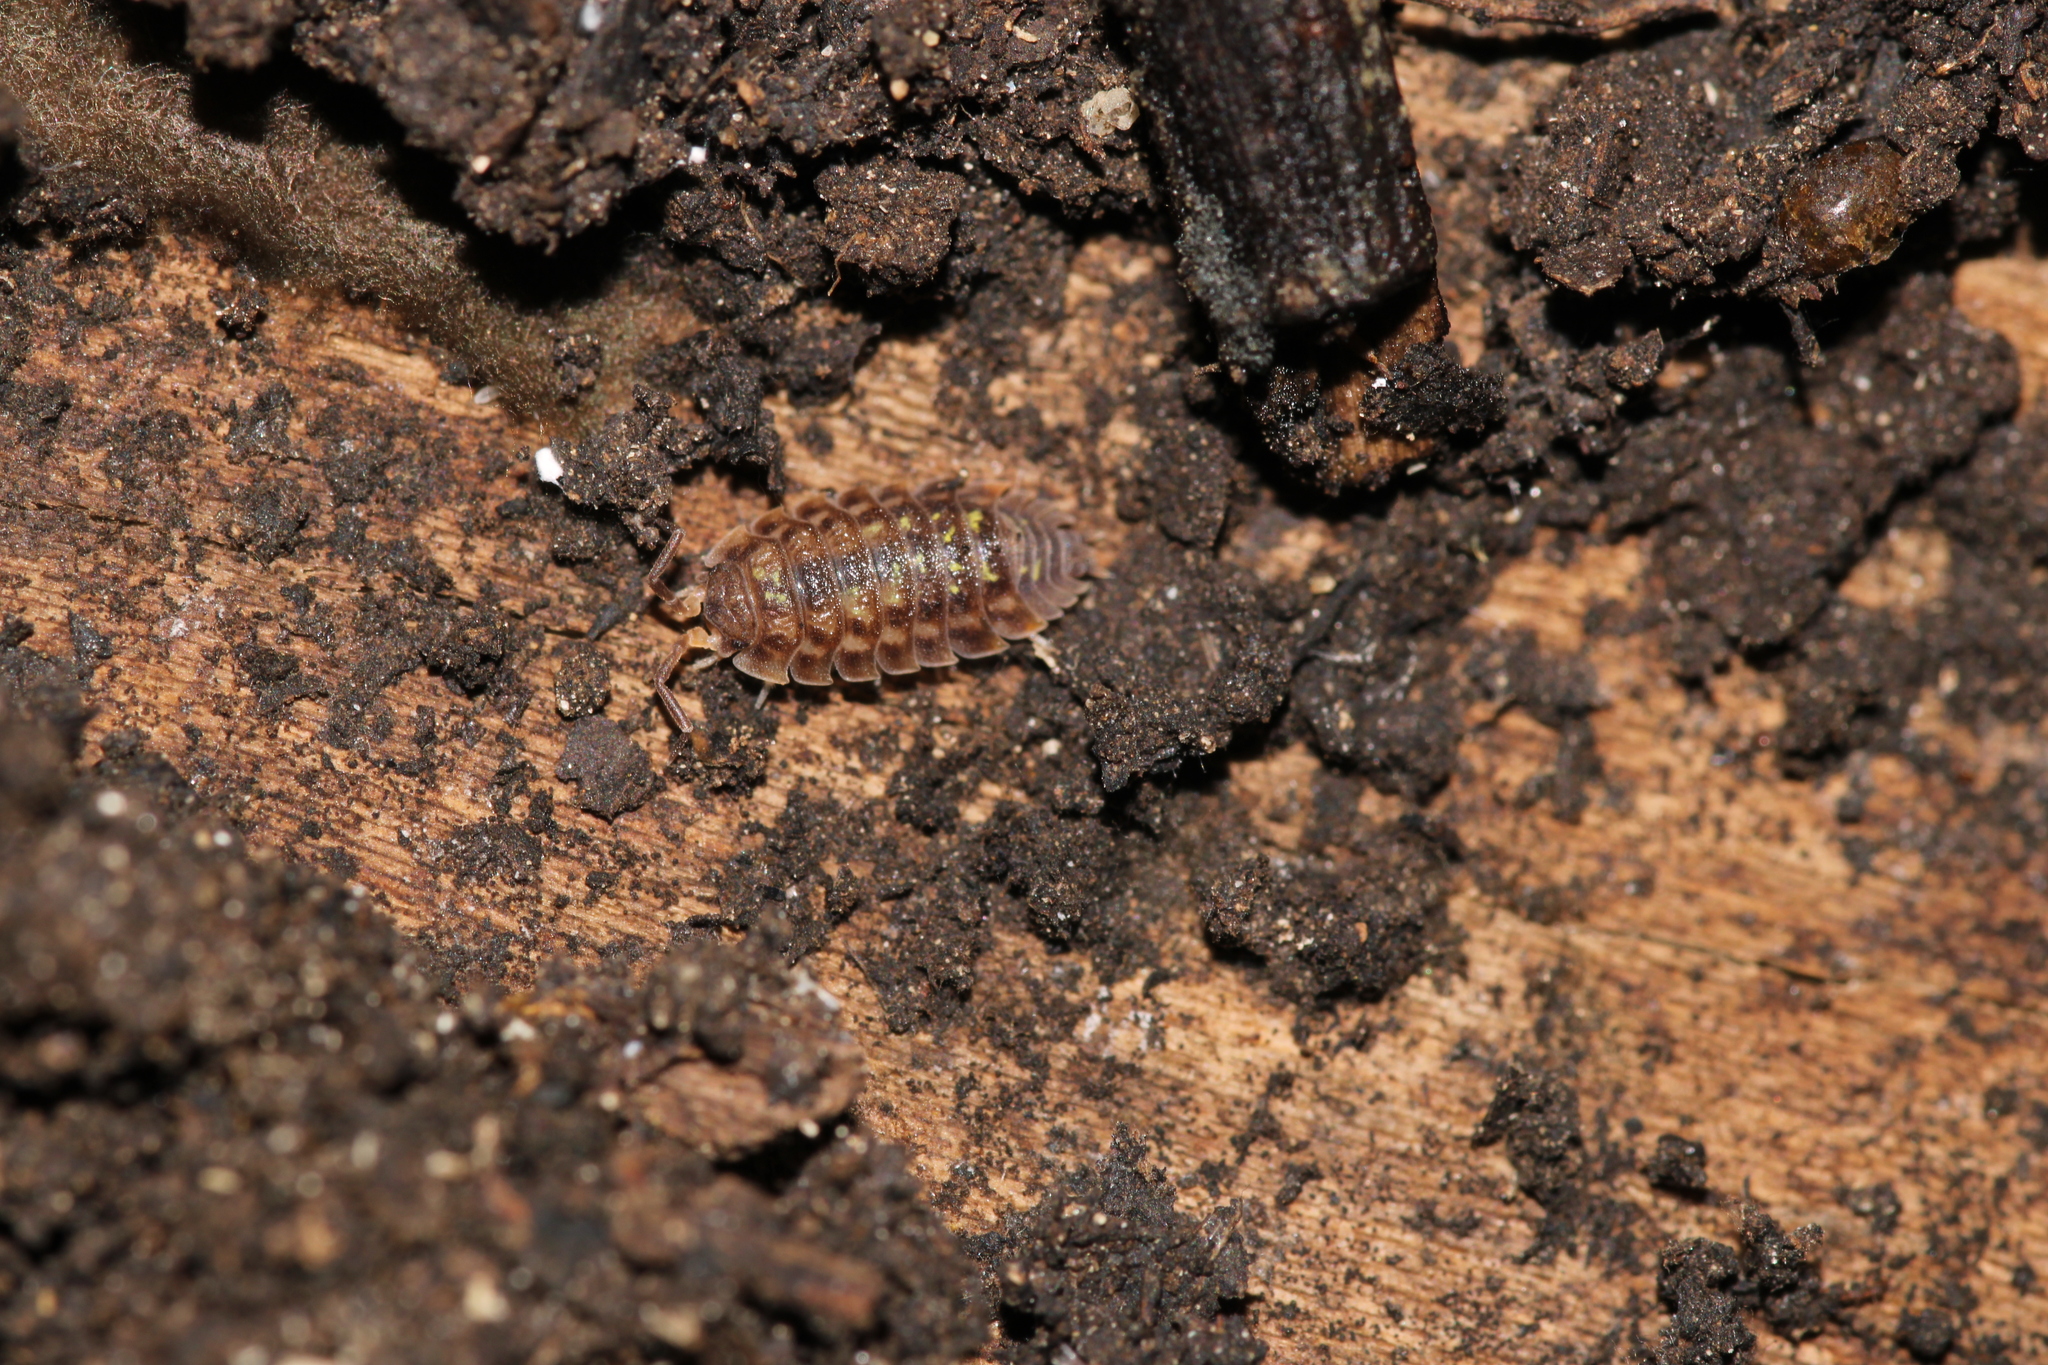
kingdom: Animalia
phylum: Arthropoda
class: Malacostraca
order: Isopoda
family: Oniscidae
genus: Oniscus
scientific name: Oniscus asellus
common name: Common shiny woodlouse
